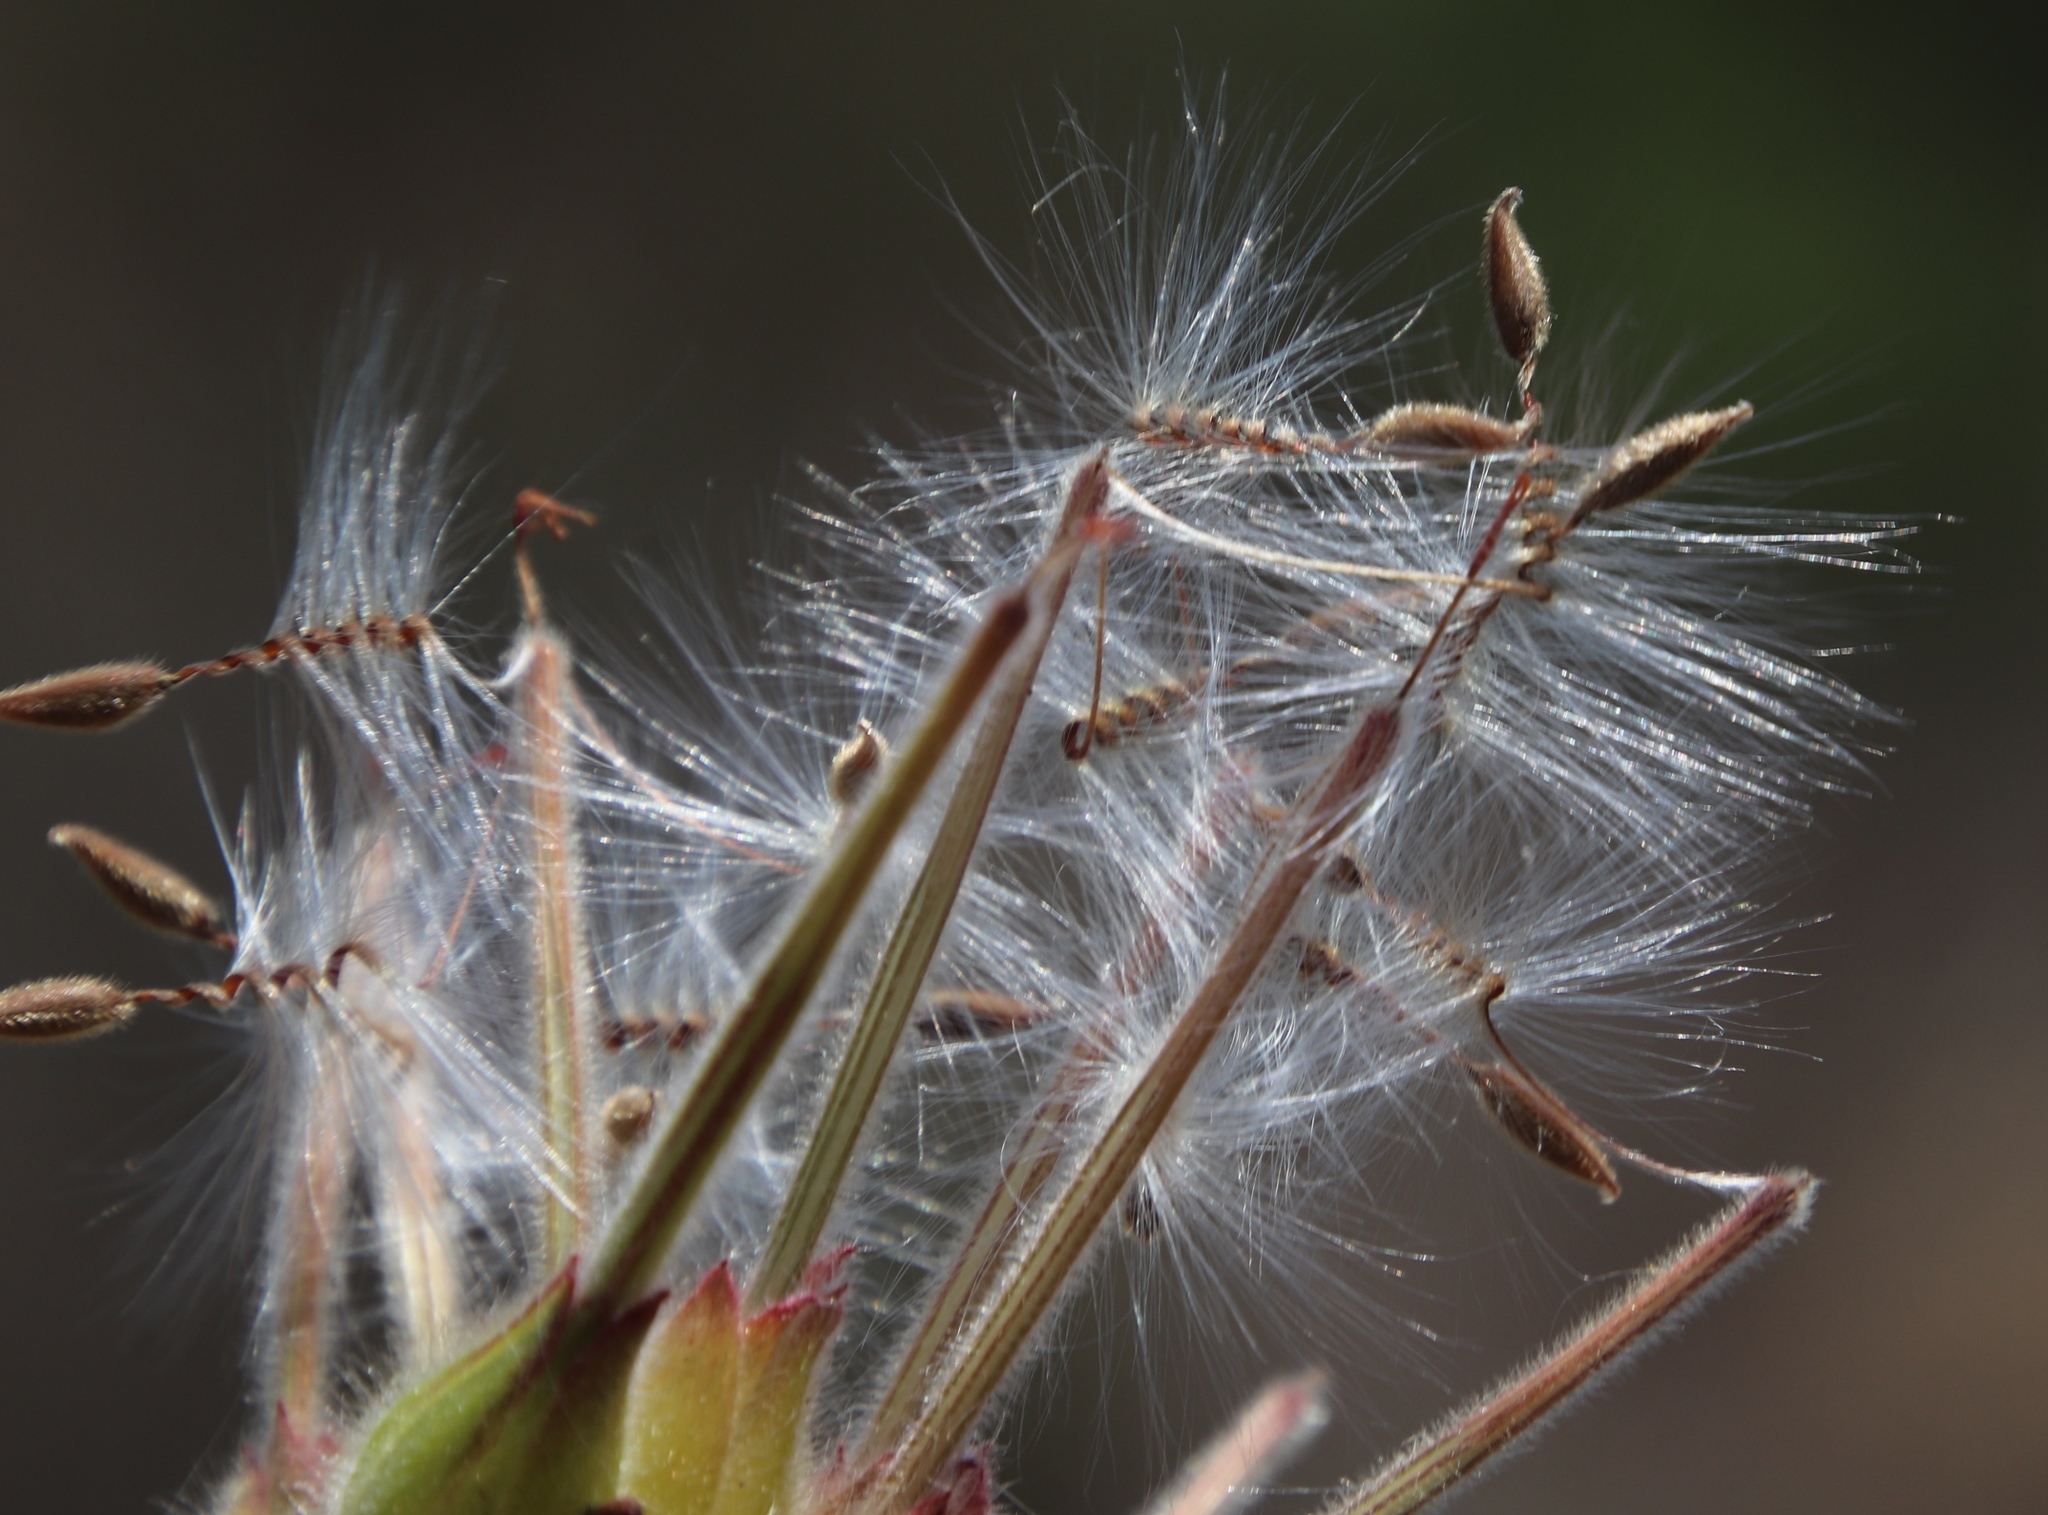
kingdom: Plantae
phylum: Tracheophyta
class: Magnoliopsida
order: Geraniales
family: Geraniaceae
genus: Pelargonium
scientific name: Pelargonium capitatum
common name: Rose scented geranium
